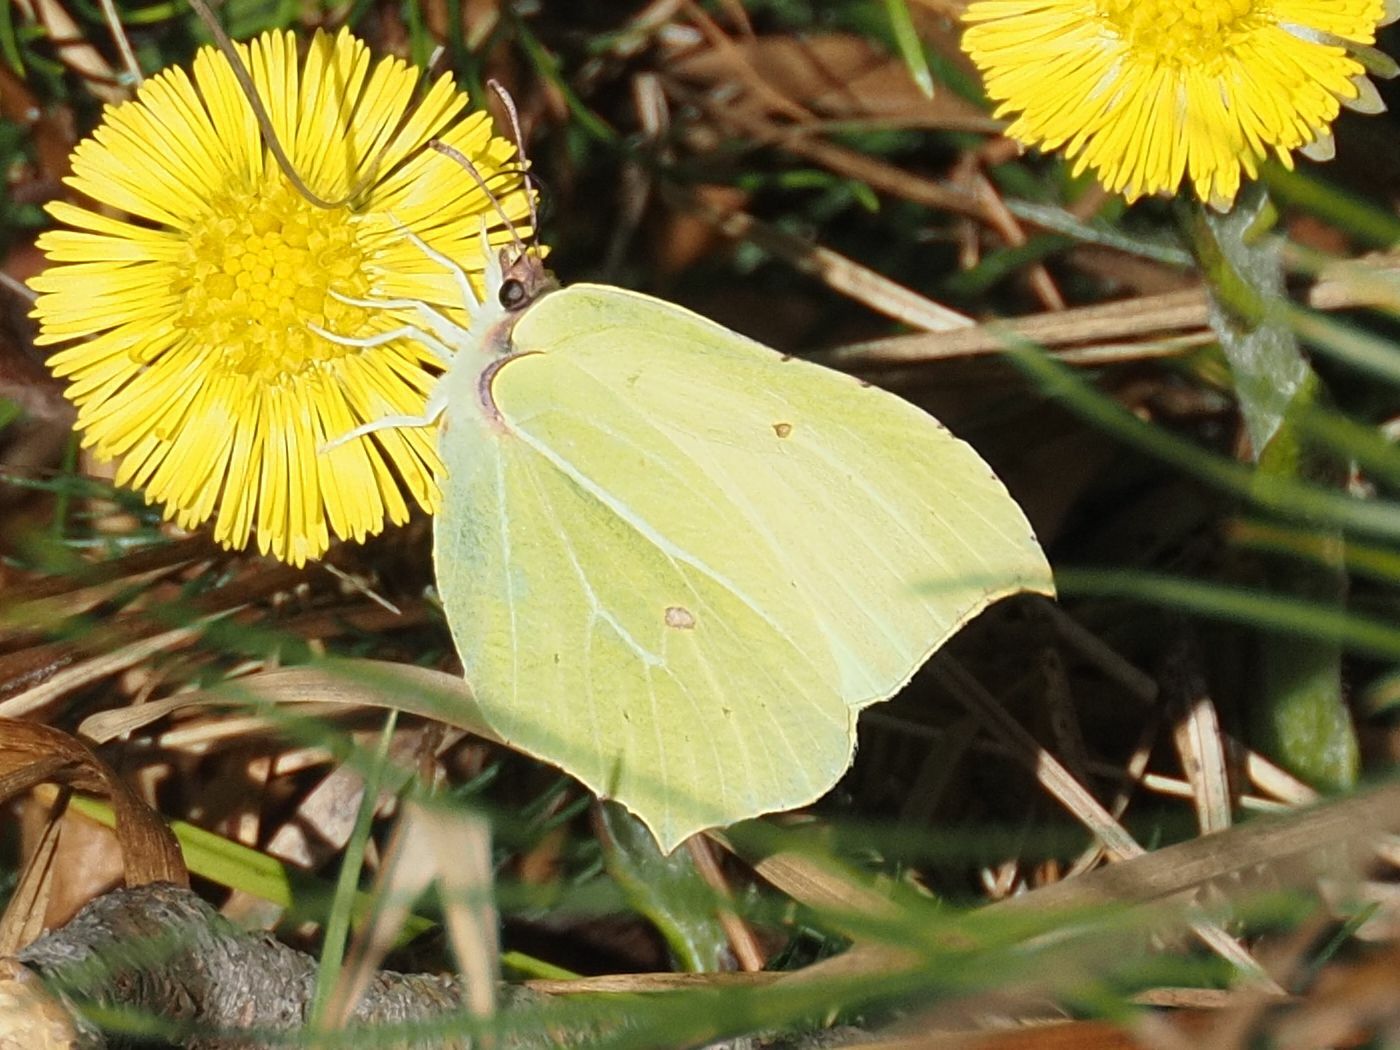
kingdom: Animalia
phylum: Arthropoda
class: Insecta
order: Lepidoptera
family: Pieridae
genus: Gonepteryx
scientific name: Gonepteryx rhamni
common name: Brimstone
